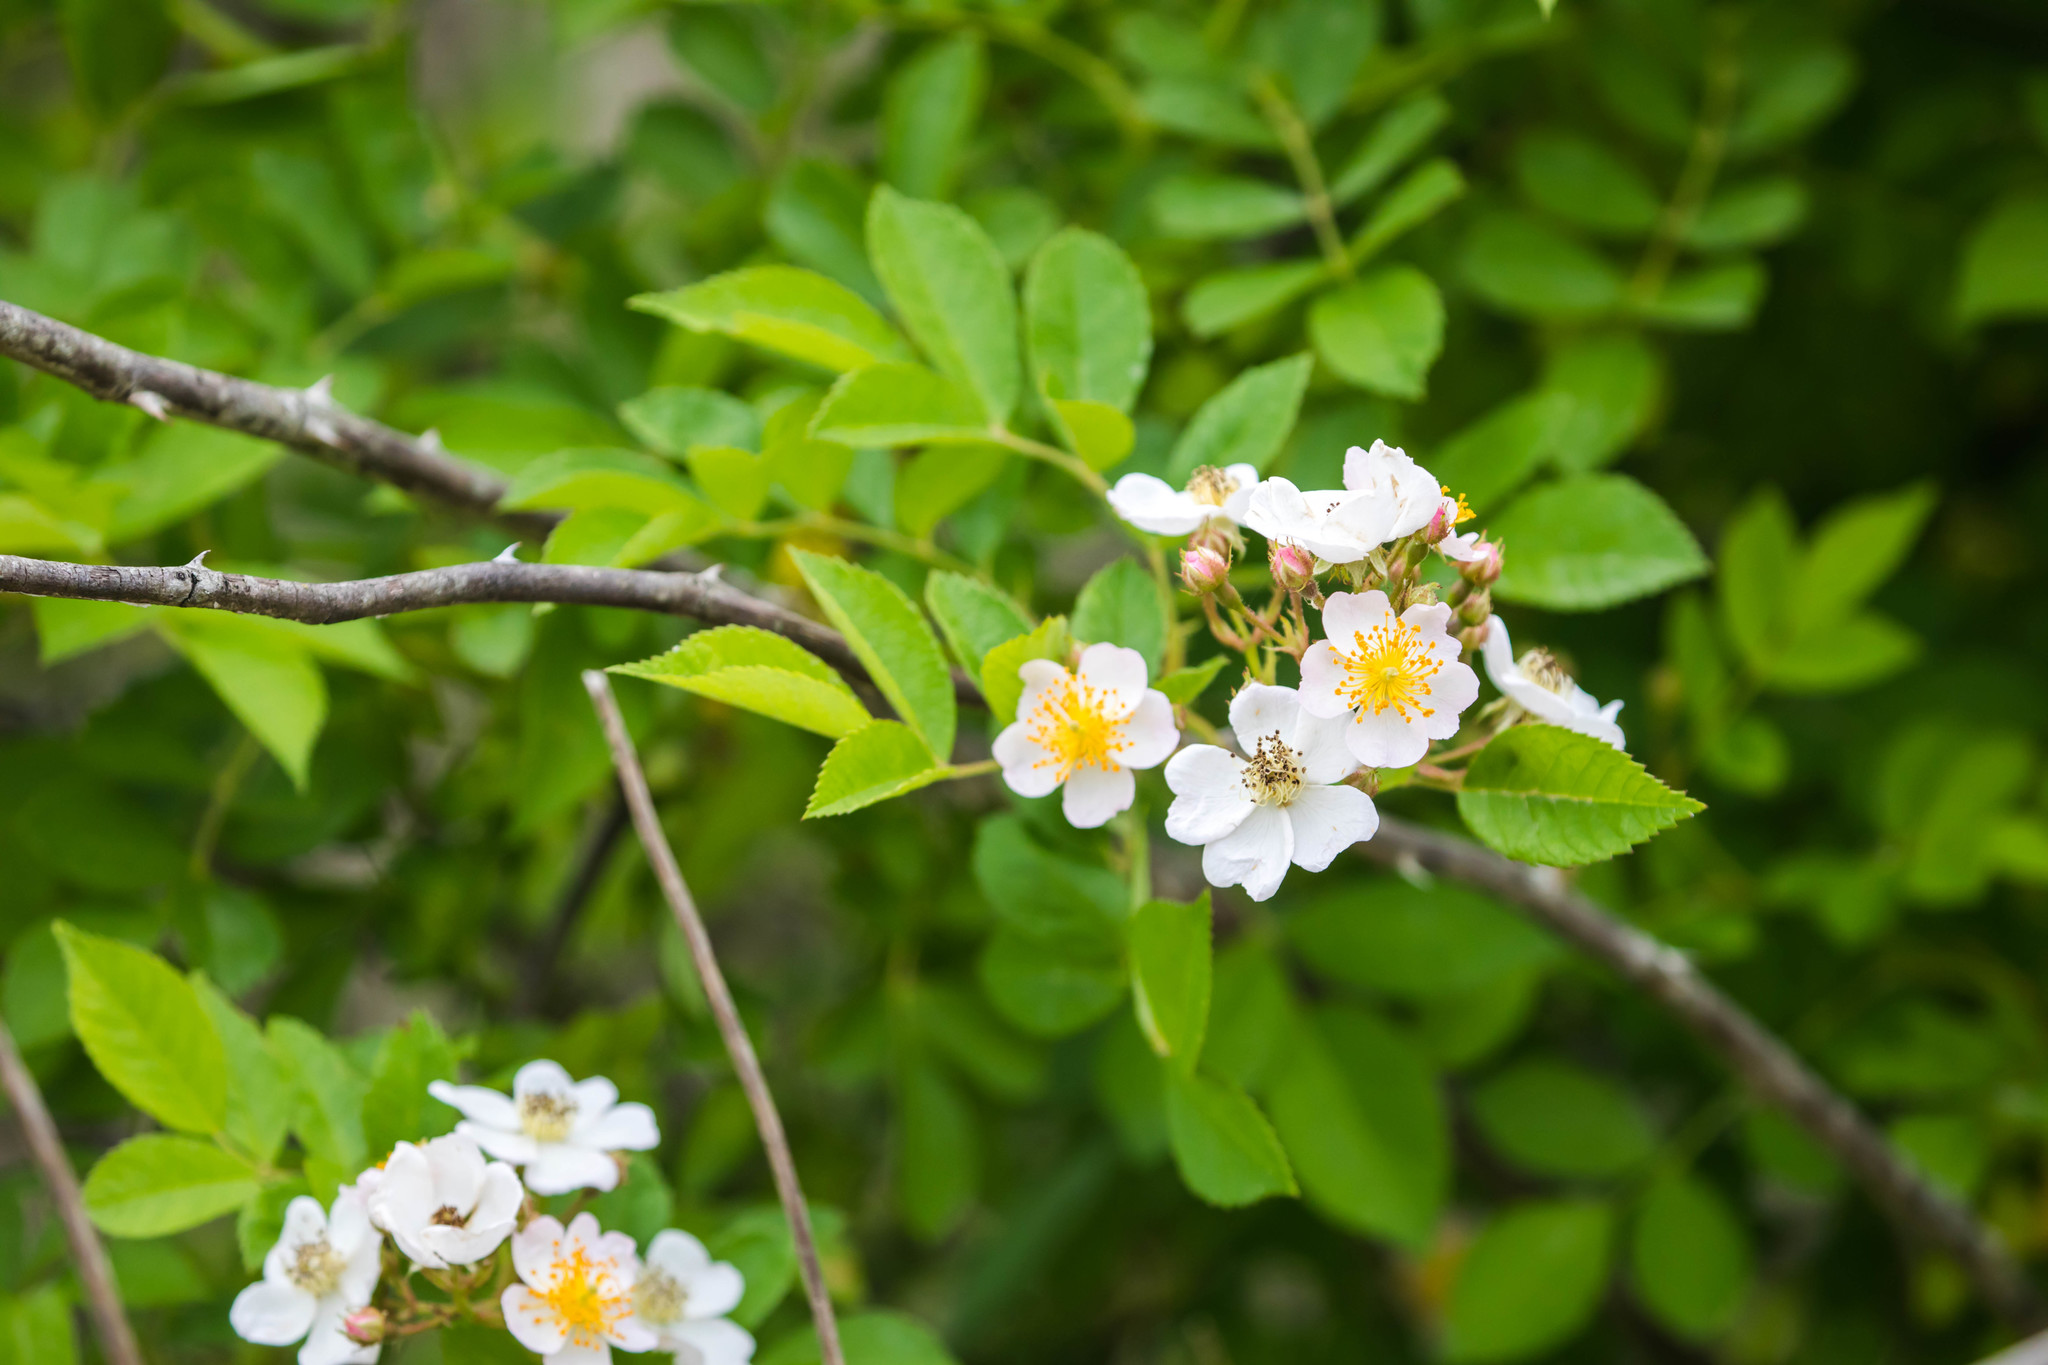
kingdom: Plantae
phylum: Tracheophyta
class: Magnoliopsida
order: Rosales
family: Rosaceae
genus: Rosa
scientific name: Rosa multiflora
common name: Multiflora rose
